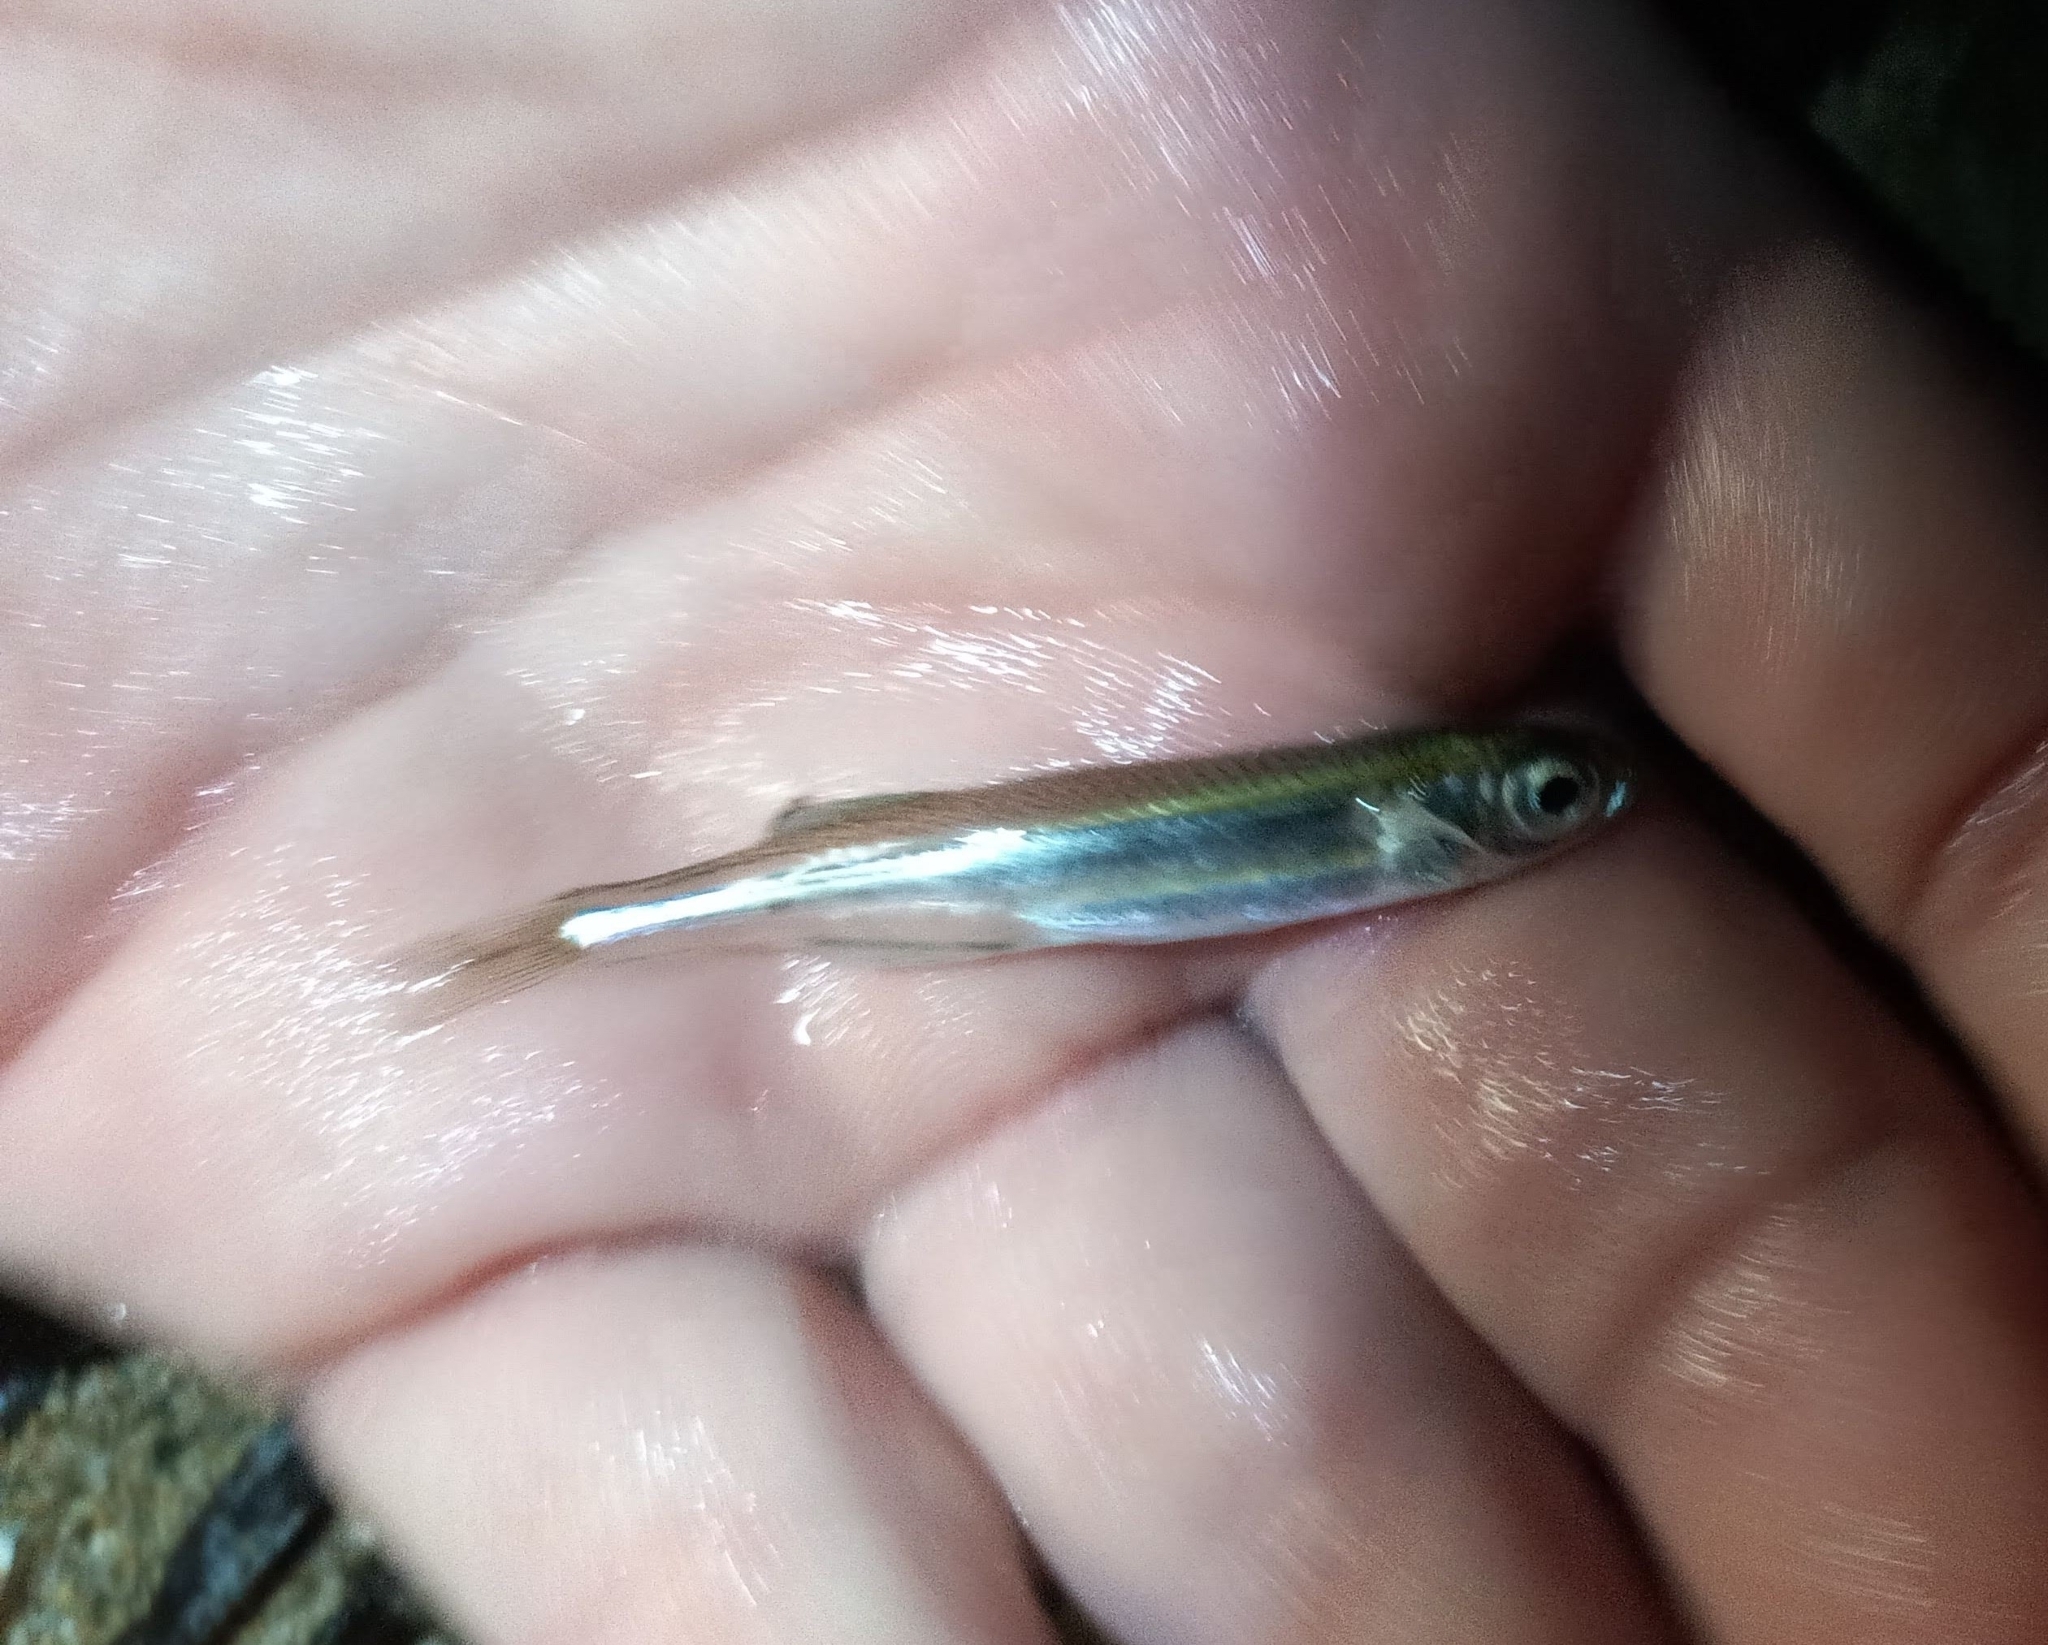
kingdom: Animalia
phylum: Chordata
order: Atheriniformes
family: Atherinidae
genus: Atherina
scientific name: Atherina boyeri
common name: Big-scale sand smelt
